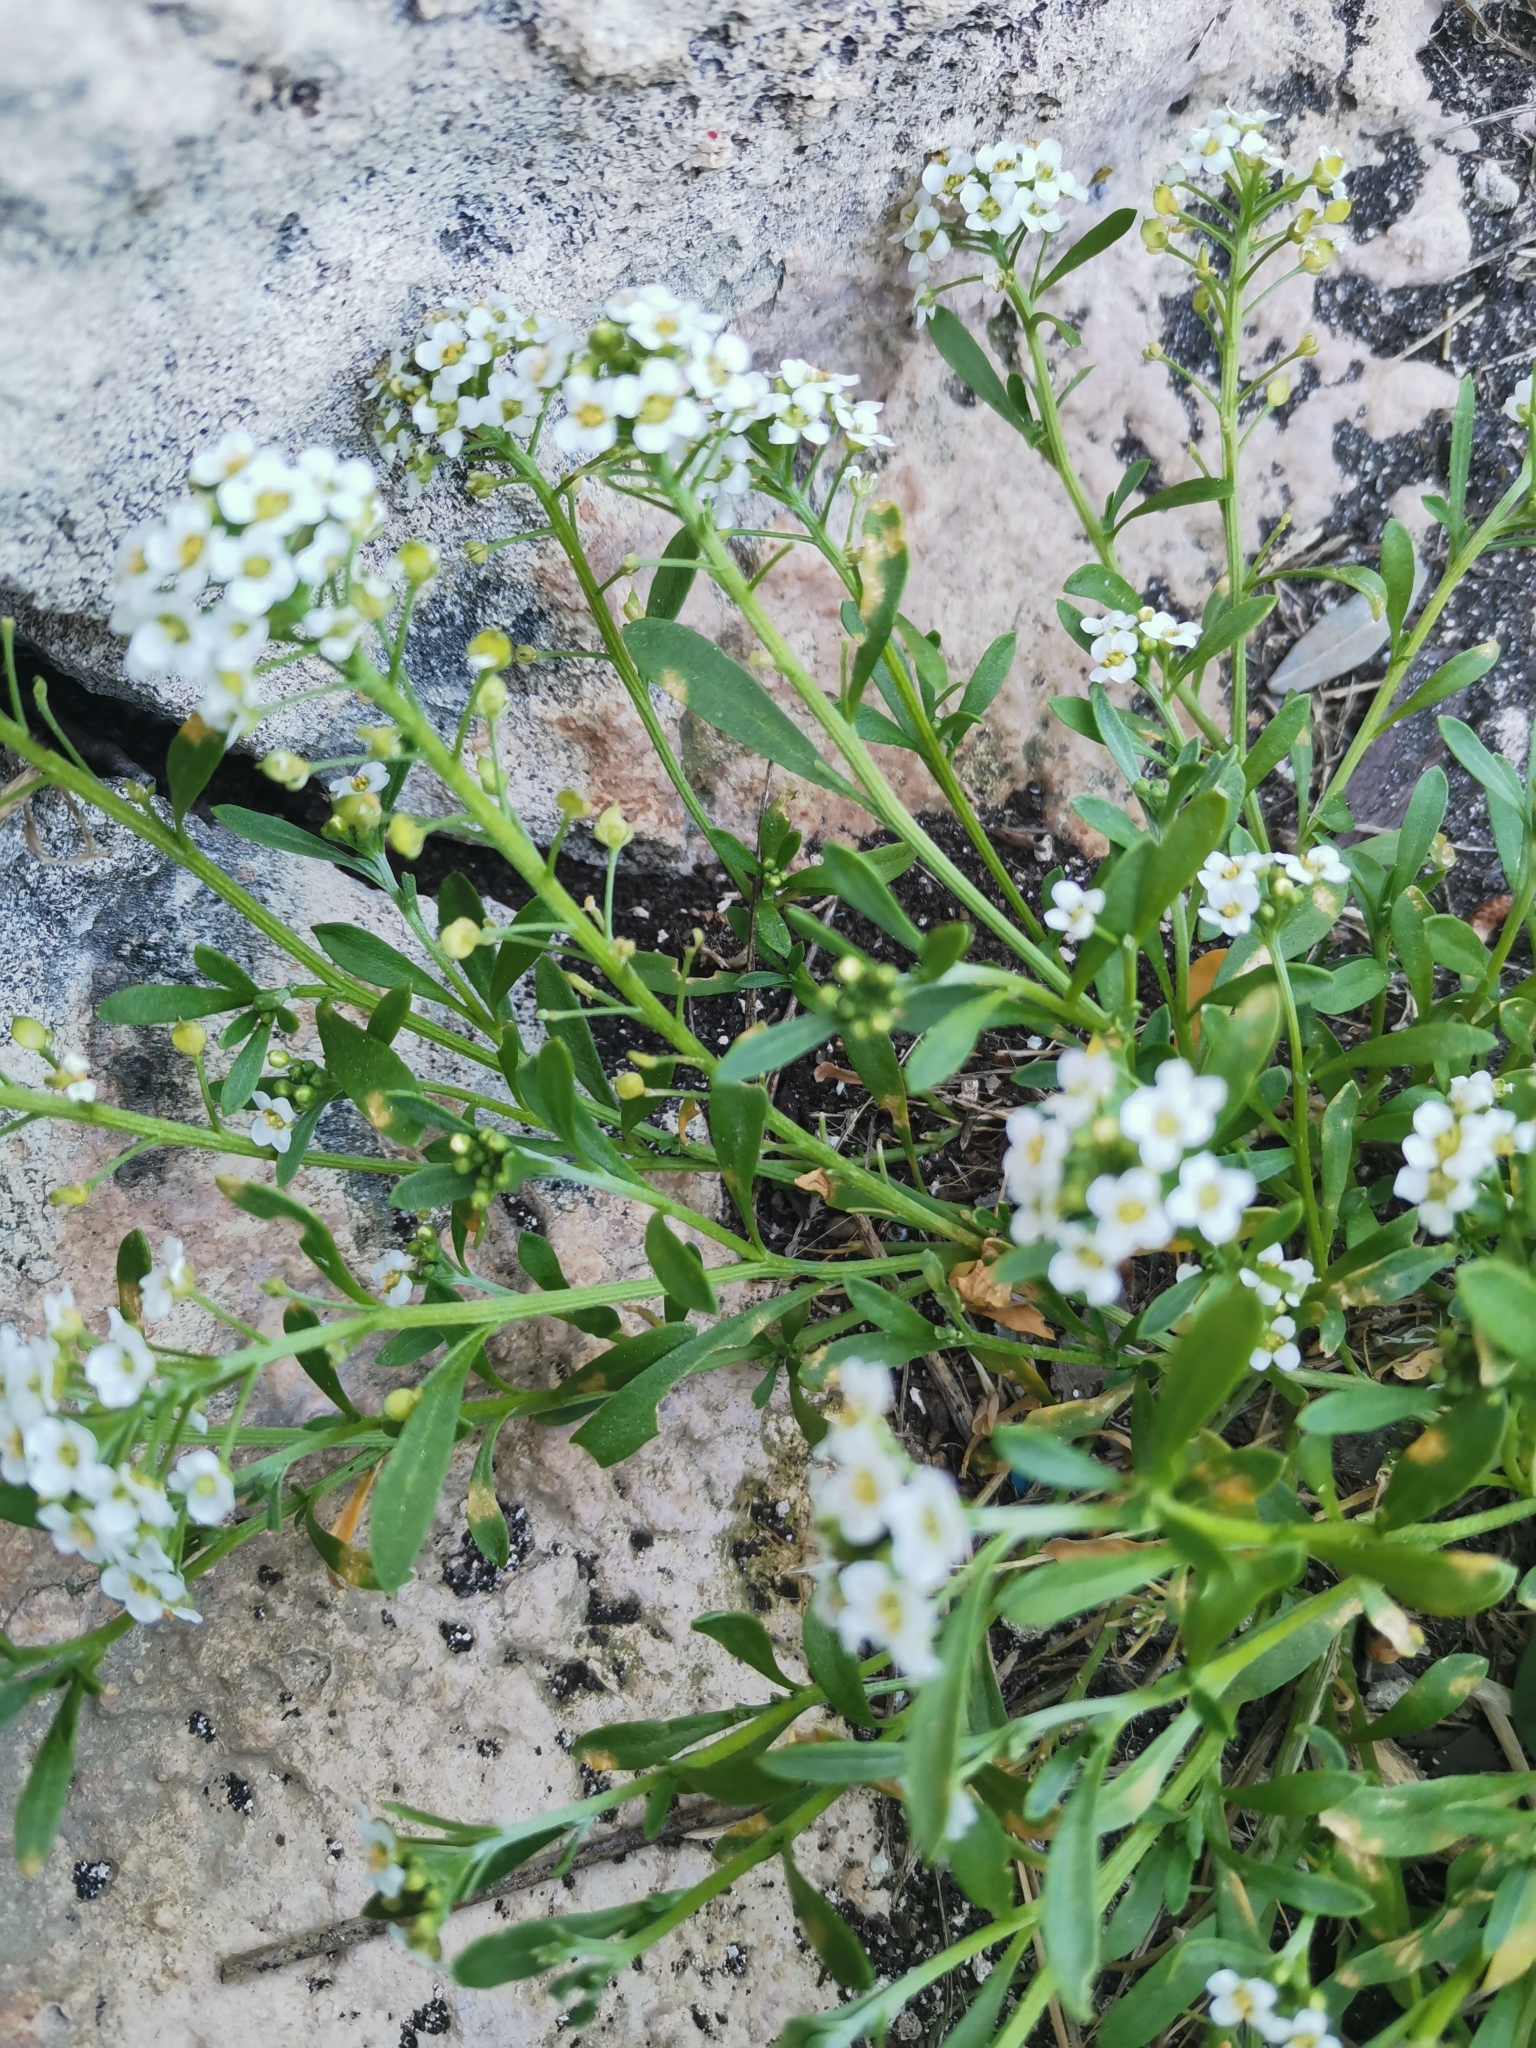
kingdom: Plantae
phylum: Tracheophyta
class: Magnoliopsida
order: Brassicales
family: Brassicaceae
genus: Lobularia
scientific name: Lobularia maritima
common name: Sweet alison
